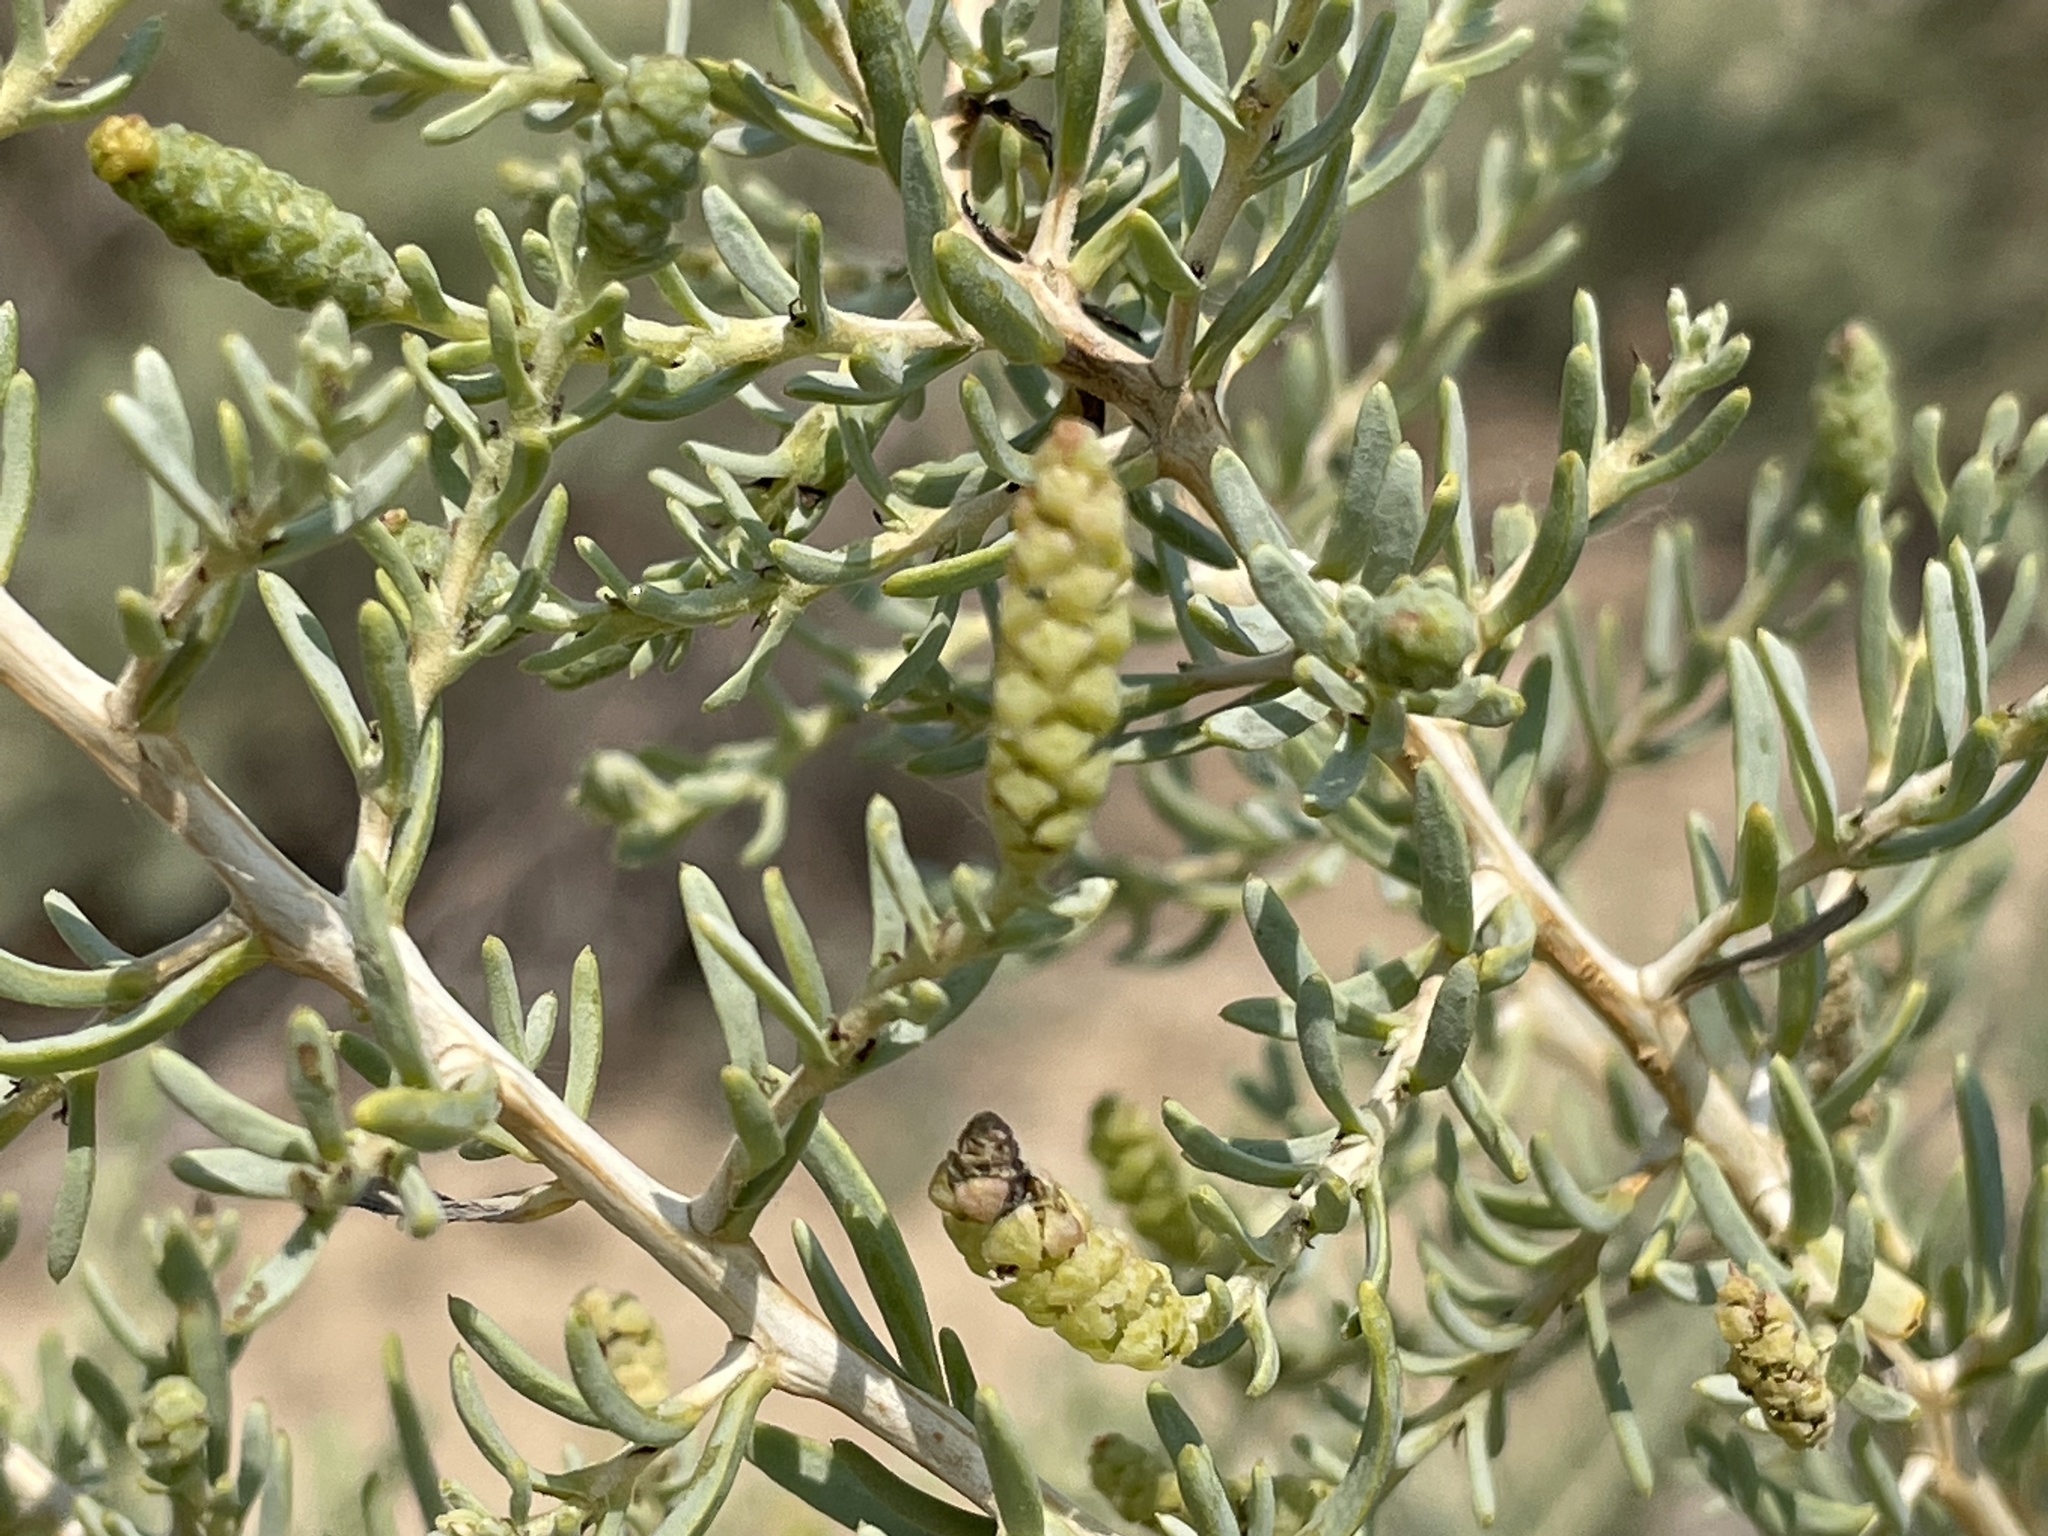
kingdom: Plantae
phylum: Tracheophyta
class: Magnoliopsida
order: Caryophyllales
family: Sarcobataceae
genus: Sarcobatus
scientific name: Sarcobatus vermiculatus
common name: Greasewood
